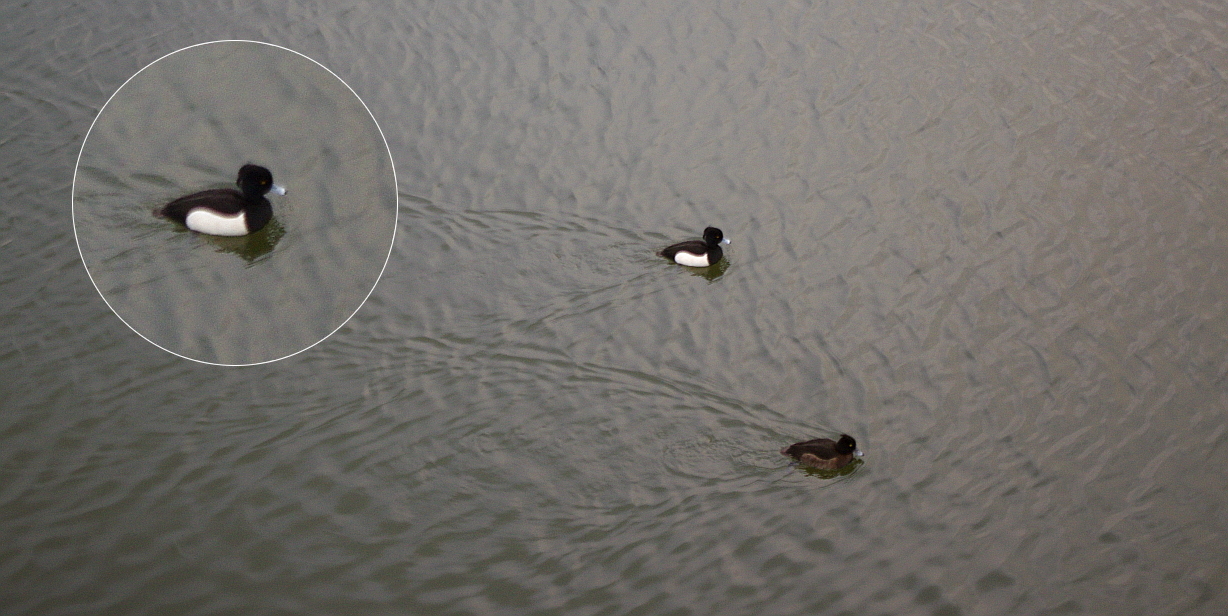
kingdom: Animalia
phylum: Chordata
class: Aves
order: Anseriformes
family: Anatidae
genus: Aythya
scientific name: Aythya fuligula
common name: Tufted duck
